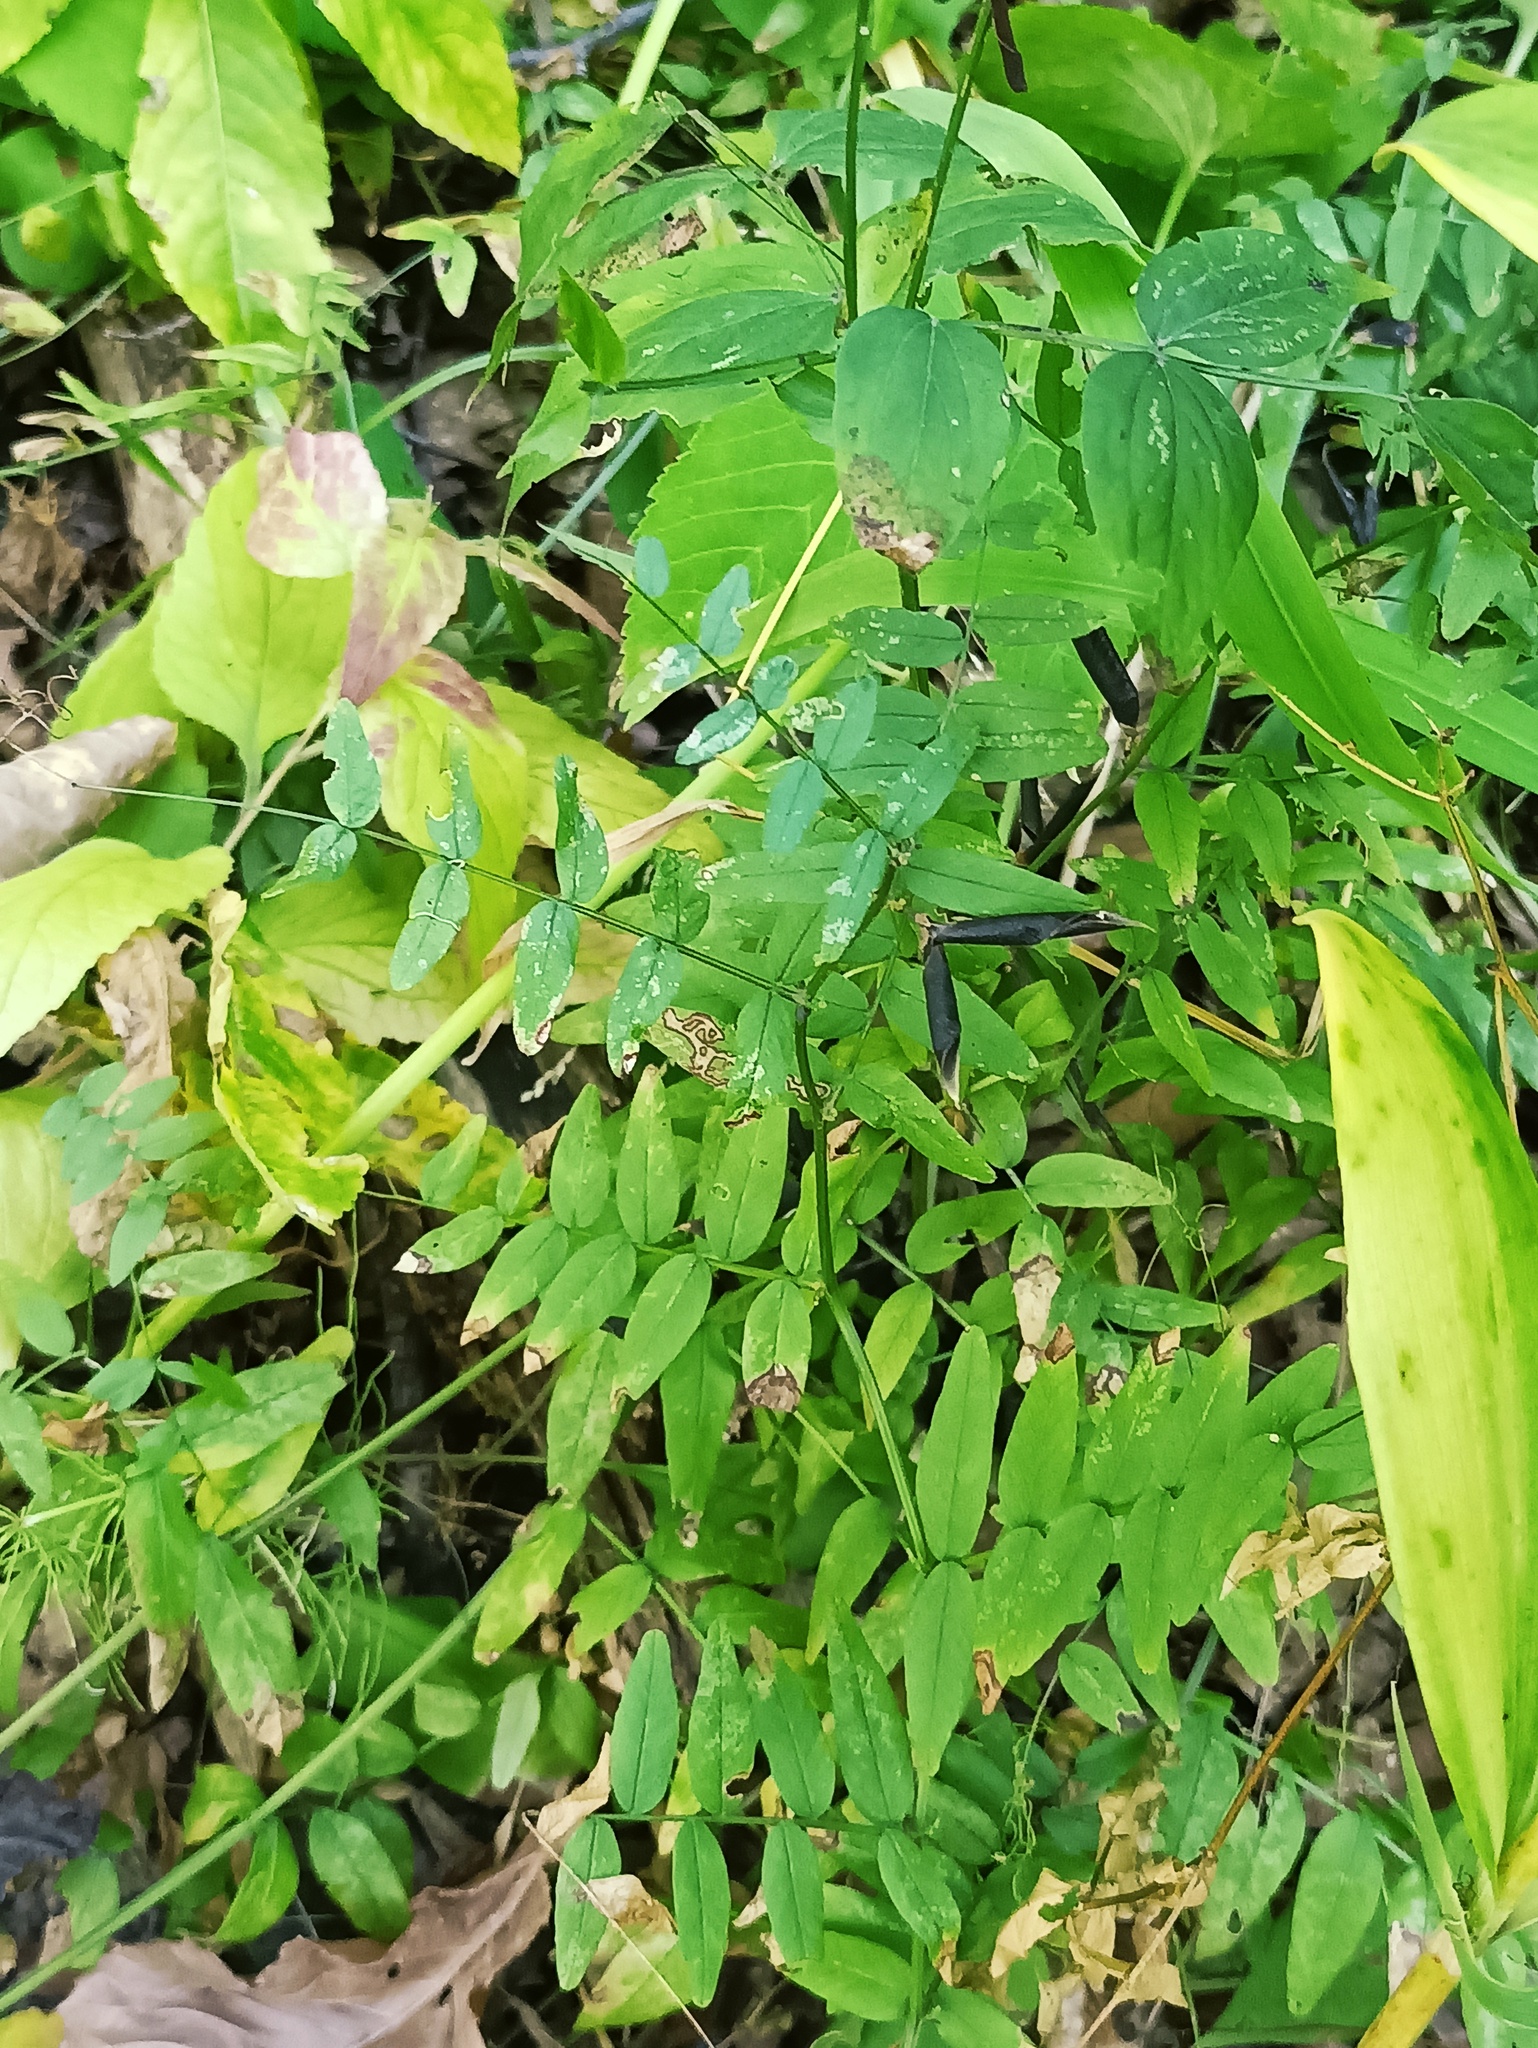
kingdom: Plantae
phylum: Tracheophyta
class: Magnoliopsida
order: Fabales
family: Fabaceae
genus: Vicia
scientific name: Vicia sepium
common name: Bush vetch
